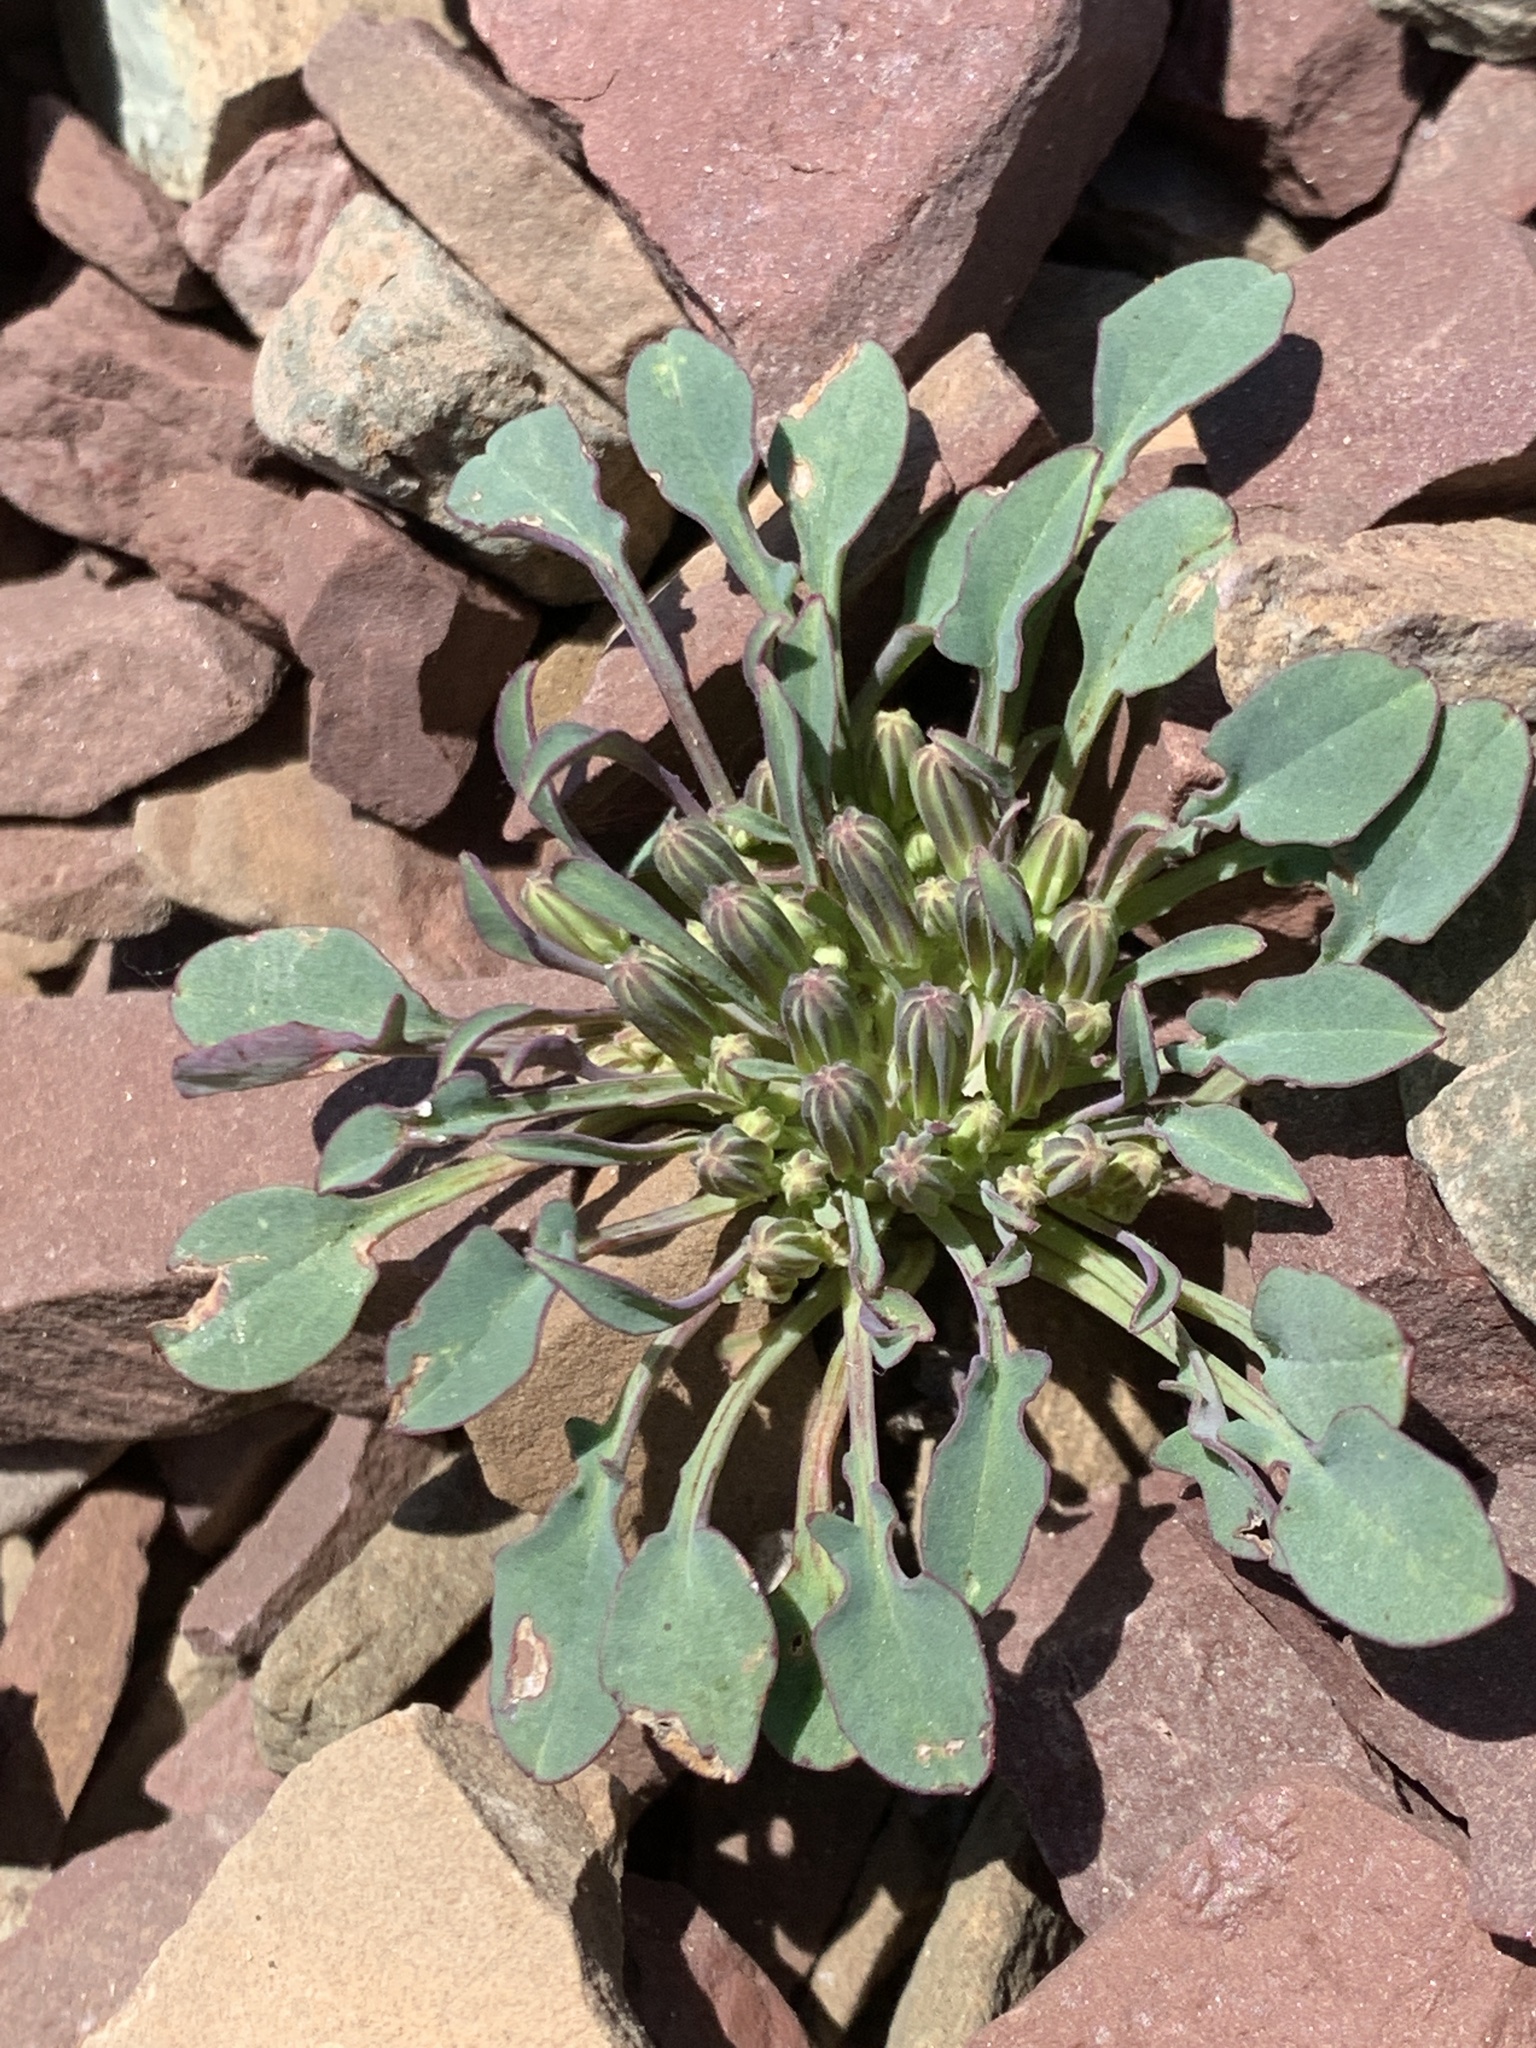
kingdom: Plantae
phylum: Tracheophyta
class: Magnoliopsida
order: Asterales
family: Asteraceae
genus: Askellia
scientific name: Askellia pygmaea
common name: Dwarf alpine hawksbeard
